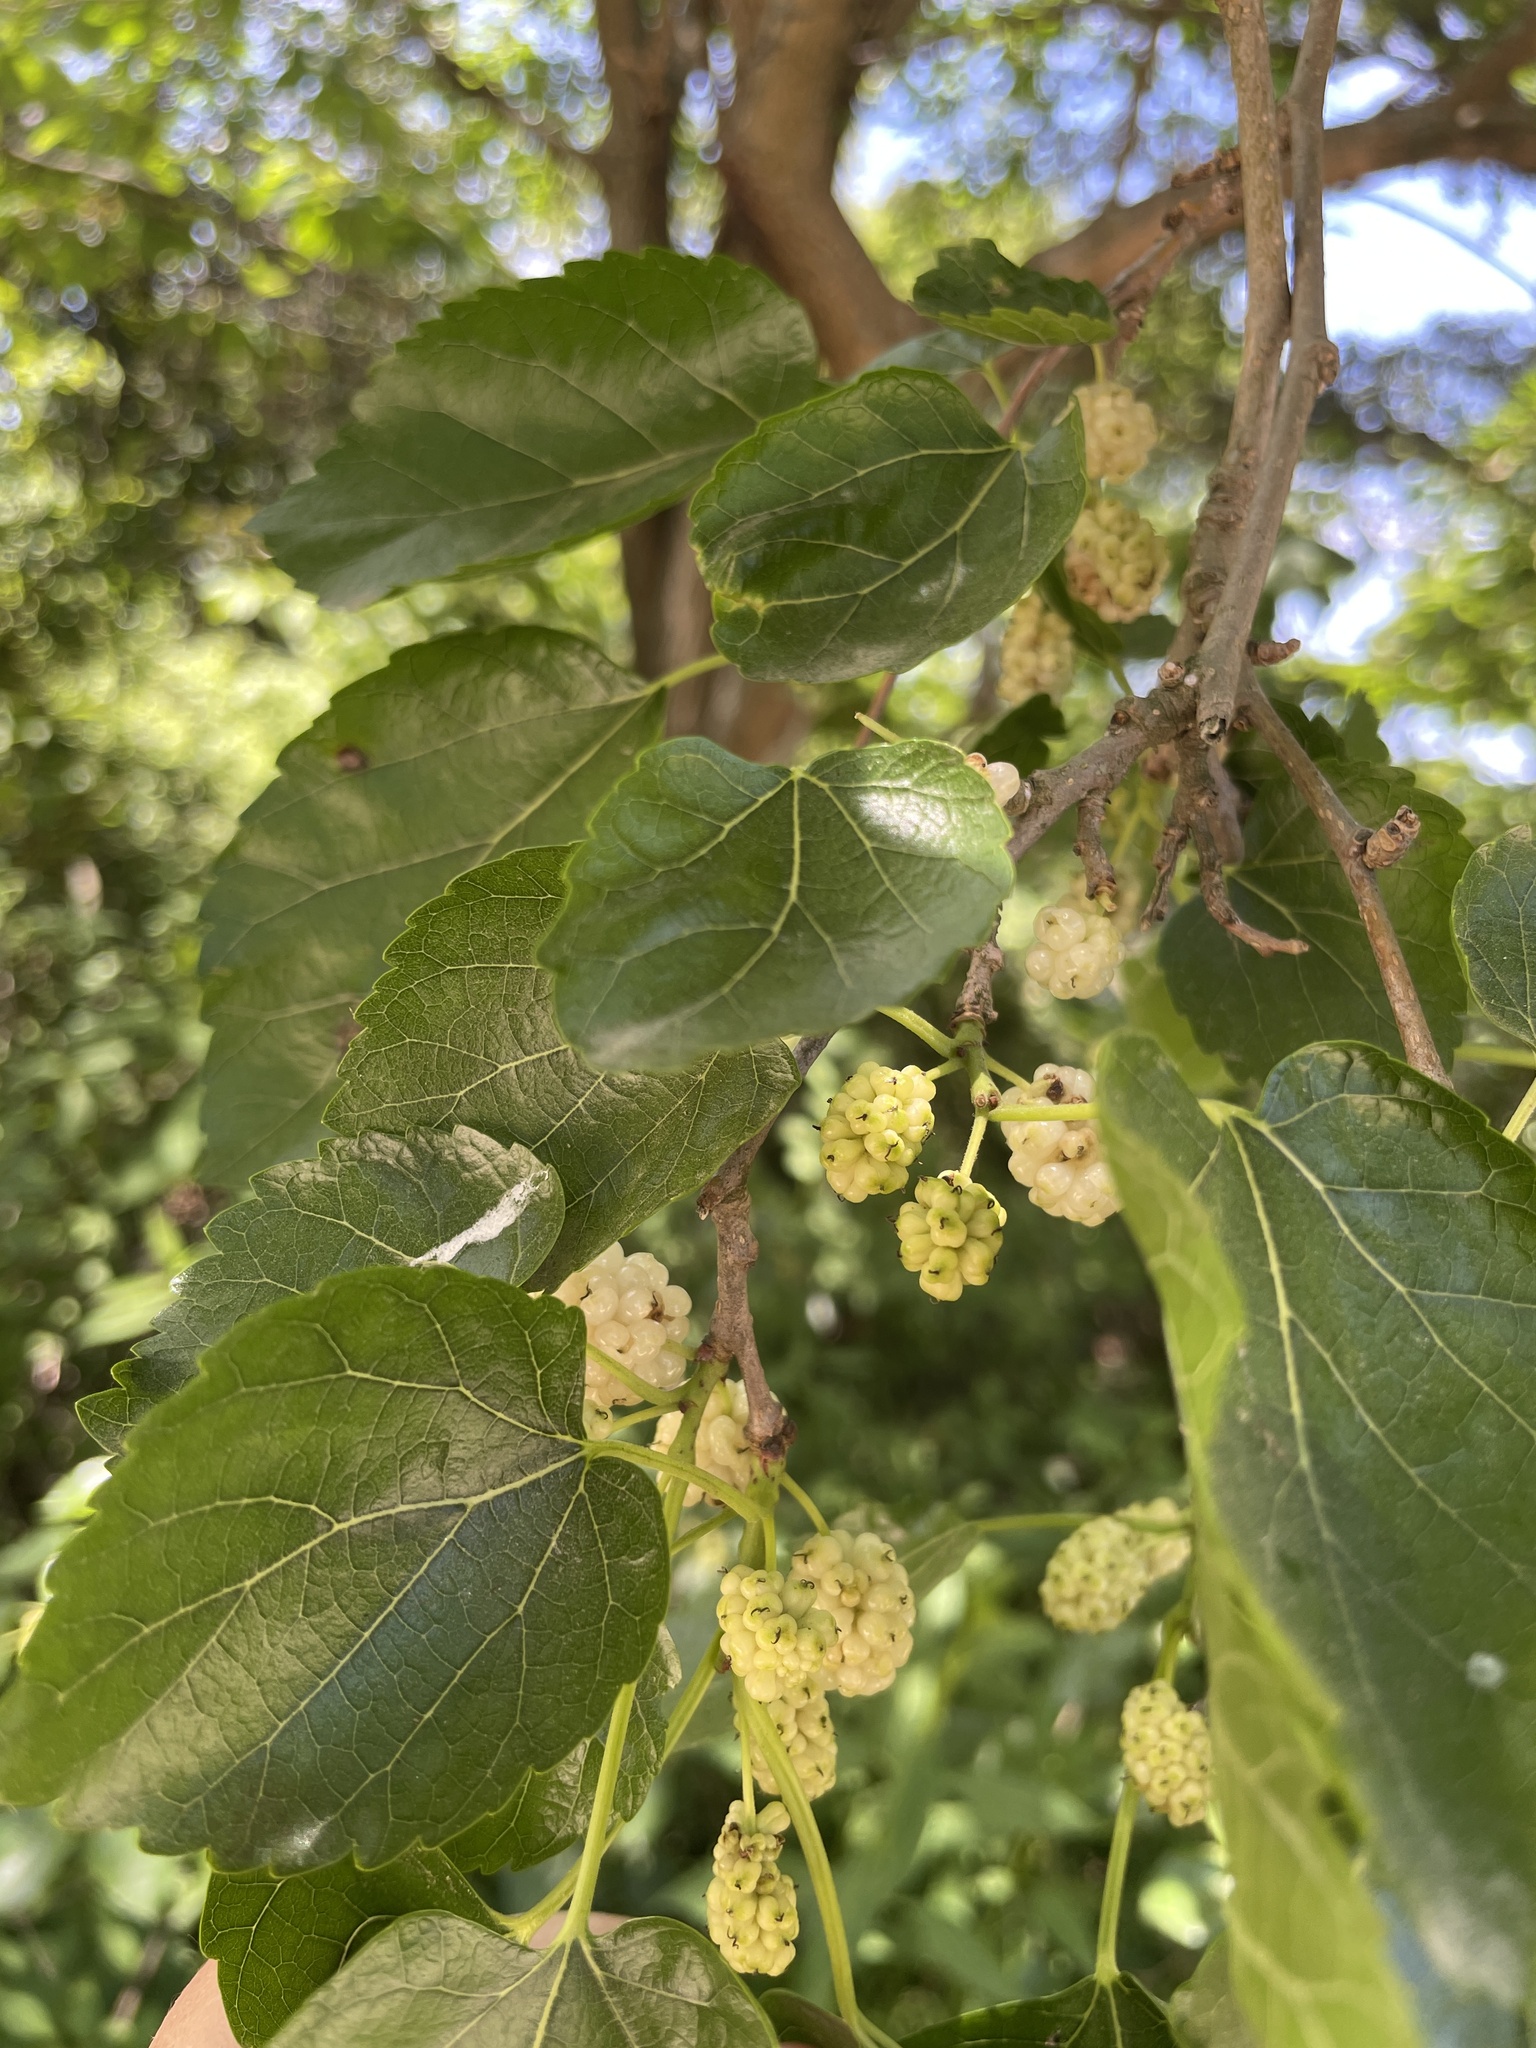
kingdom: Plantae
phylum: Tracheophyta
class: Magnoliopsida
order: Rosales
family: Moraceae
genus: Morus
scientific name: Morus alba
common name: White mulberry
